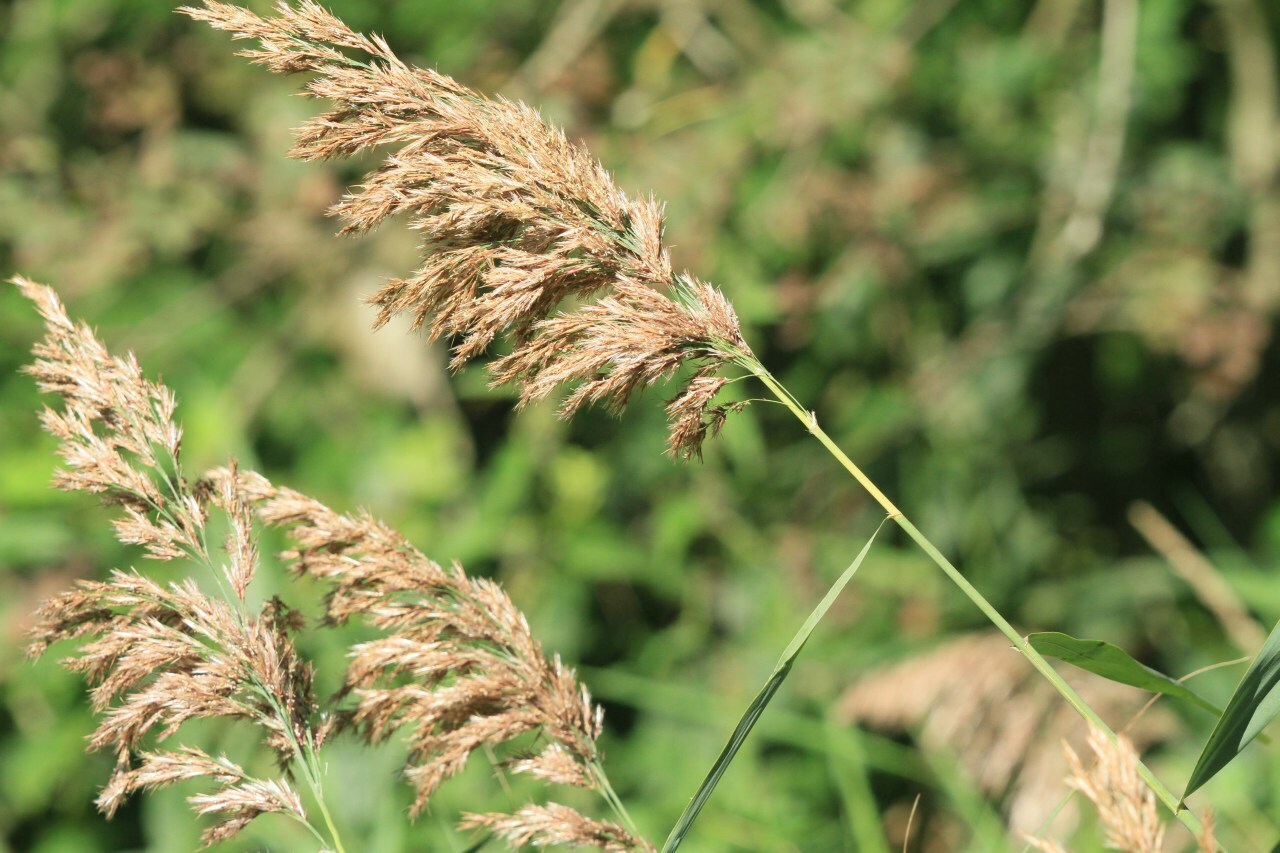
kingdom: Plantae
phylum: Tracheophyta
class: Liliopsida
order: Poales
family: Poaceae
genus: Phragmites
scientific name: Phragmites australis
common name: Common reed
